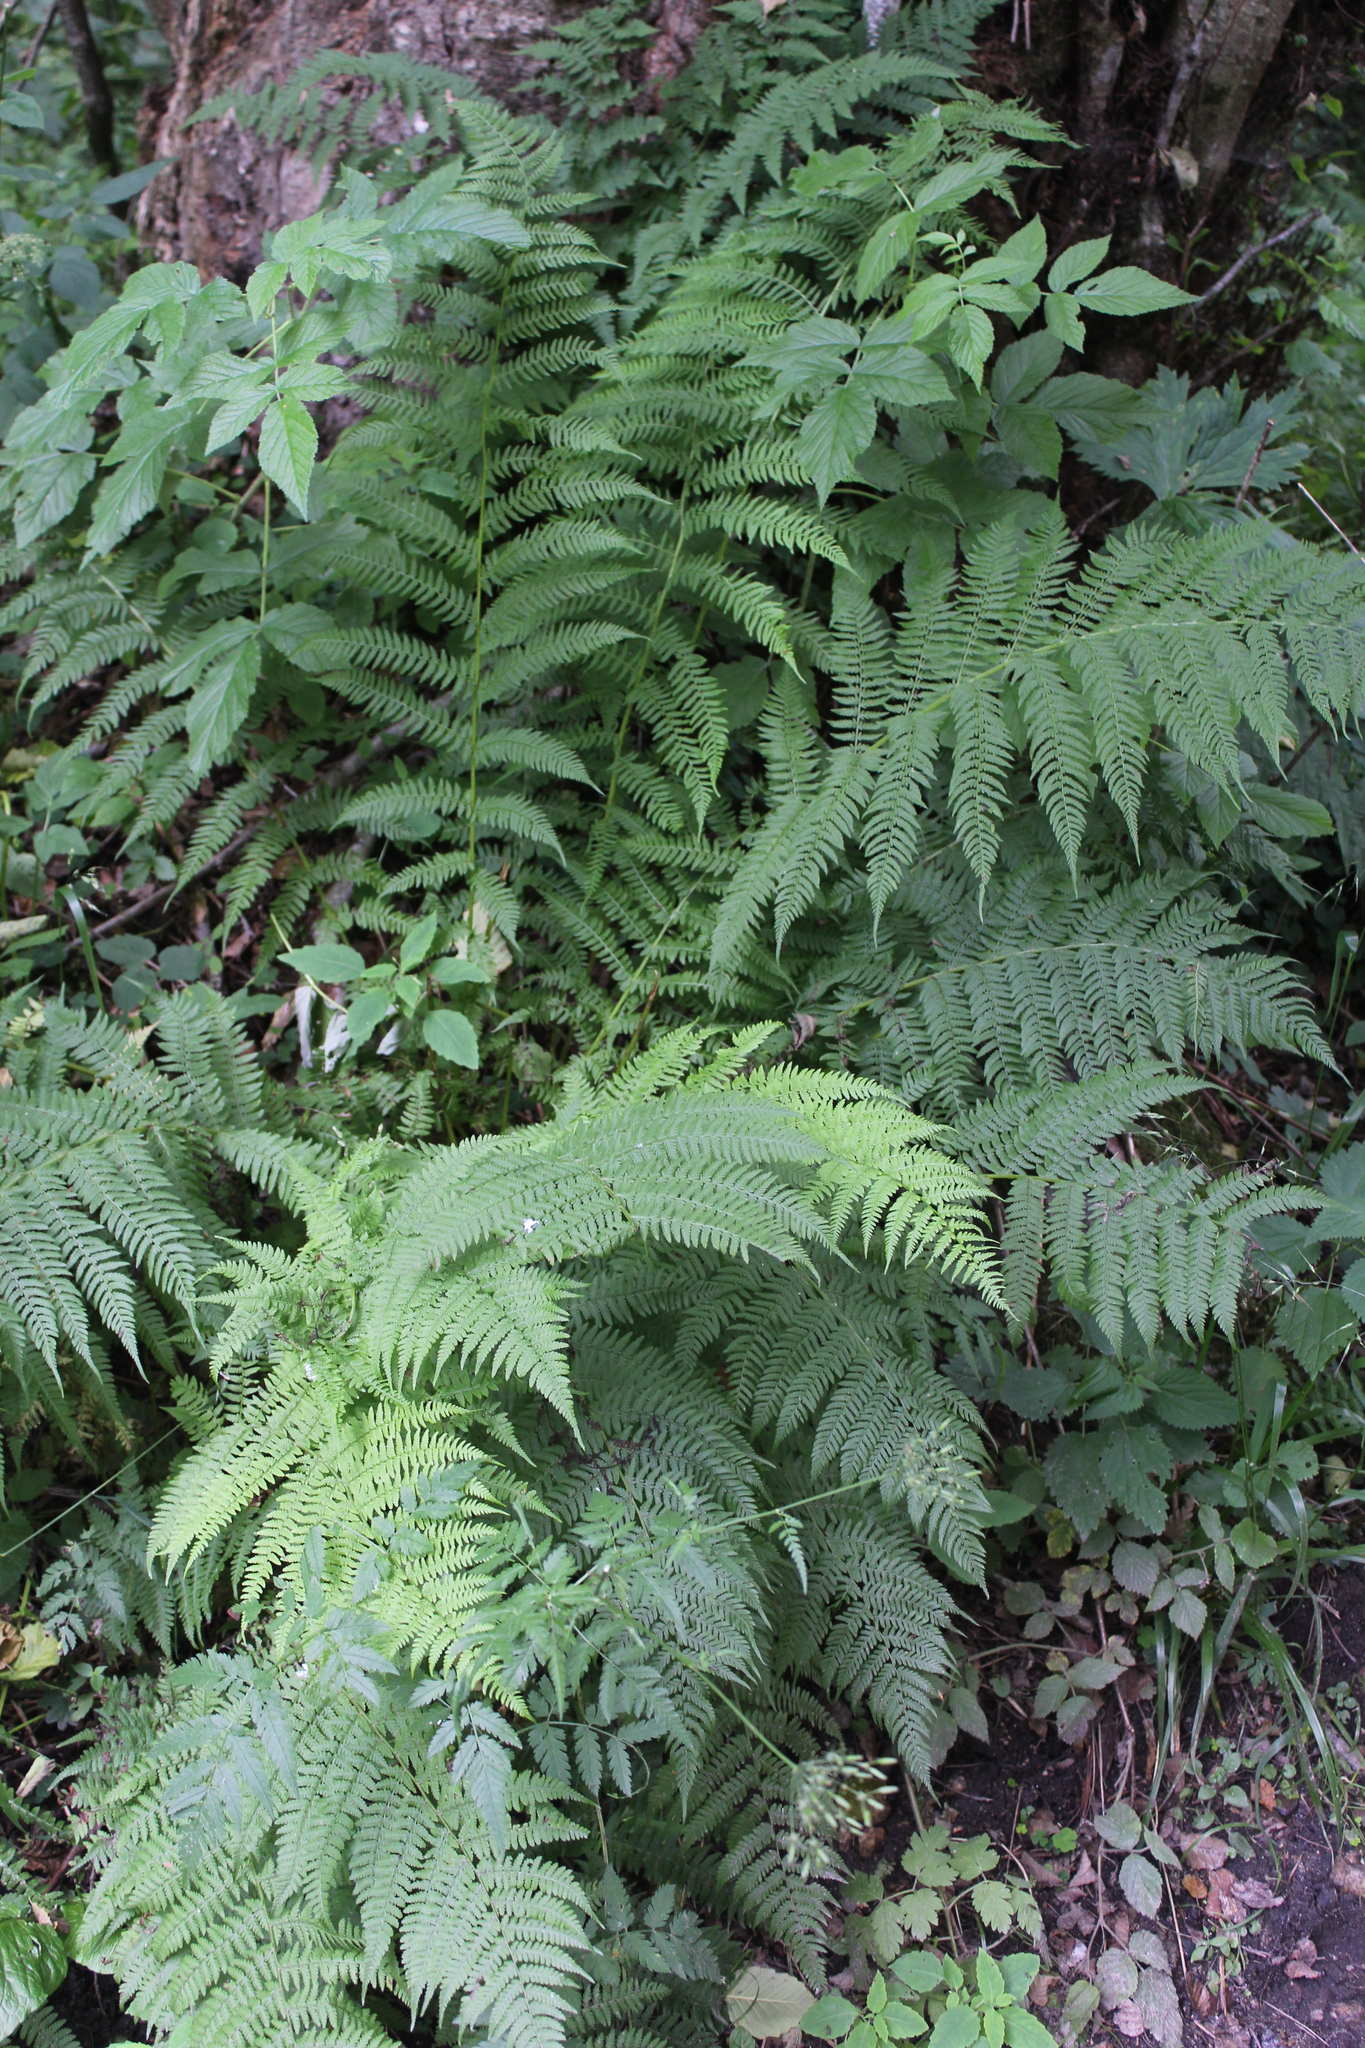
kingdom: Plantae
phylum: Tracheophyta
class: Polypodiopsida
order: Polypodiales
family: Athyriaceae
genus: Athyrium
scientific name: Athyrium filix-femina
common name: Lady fern
